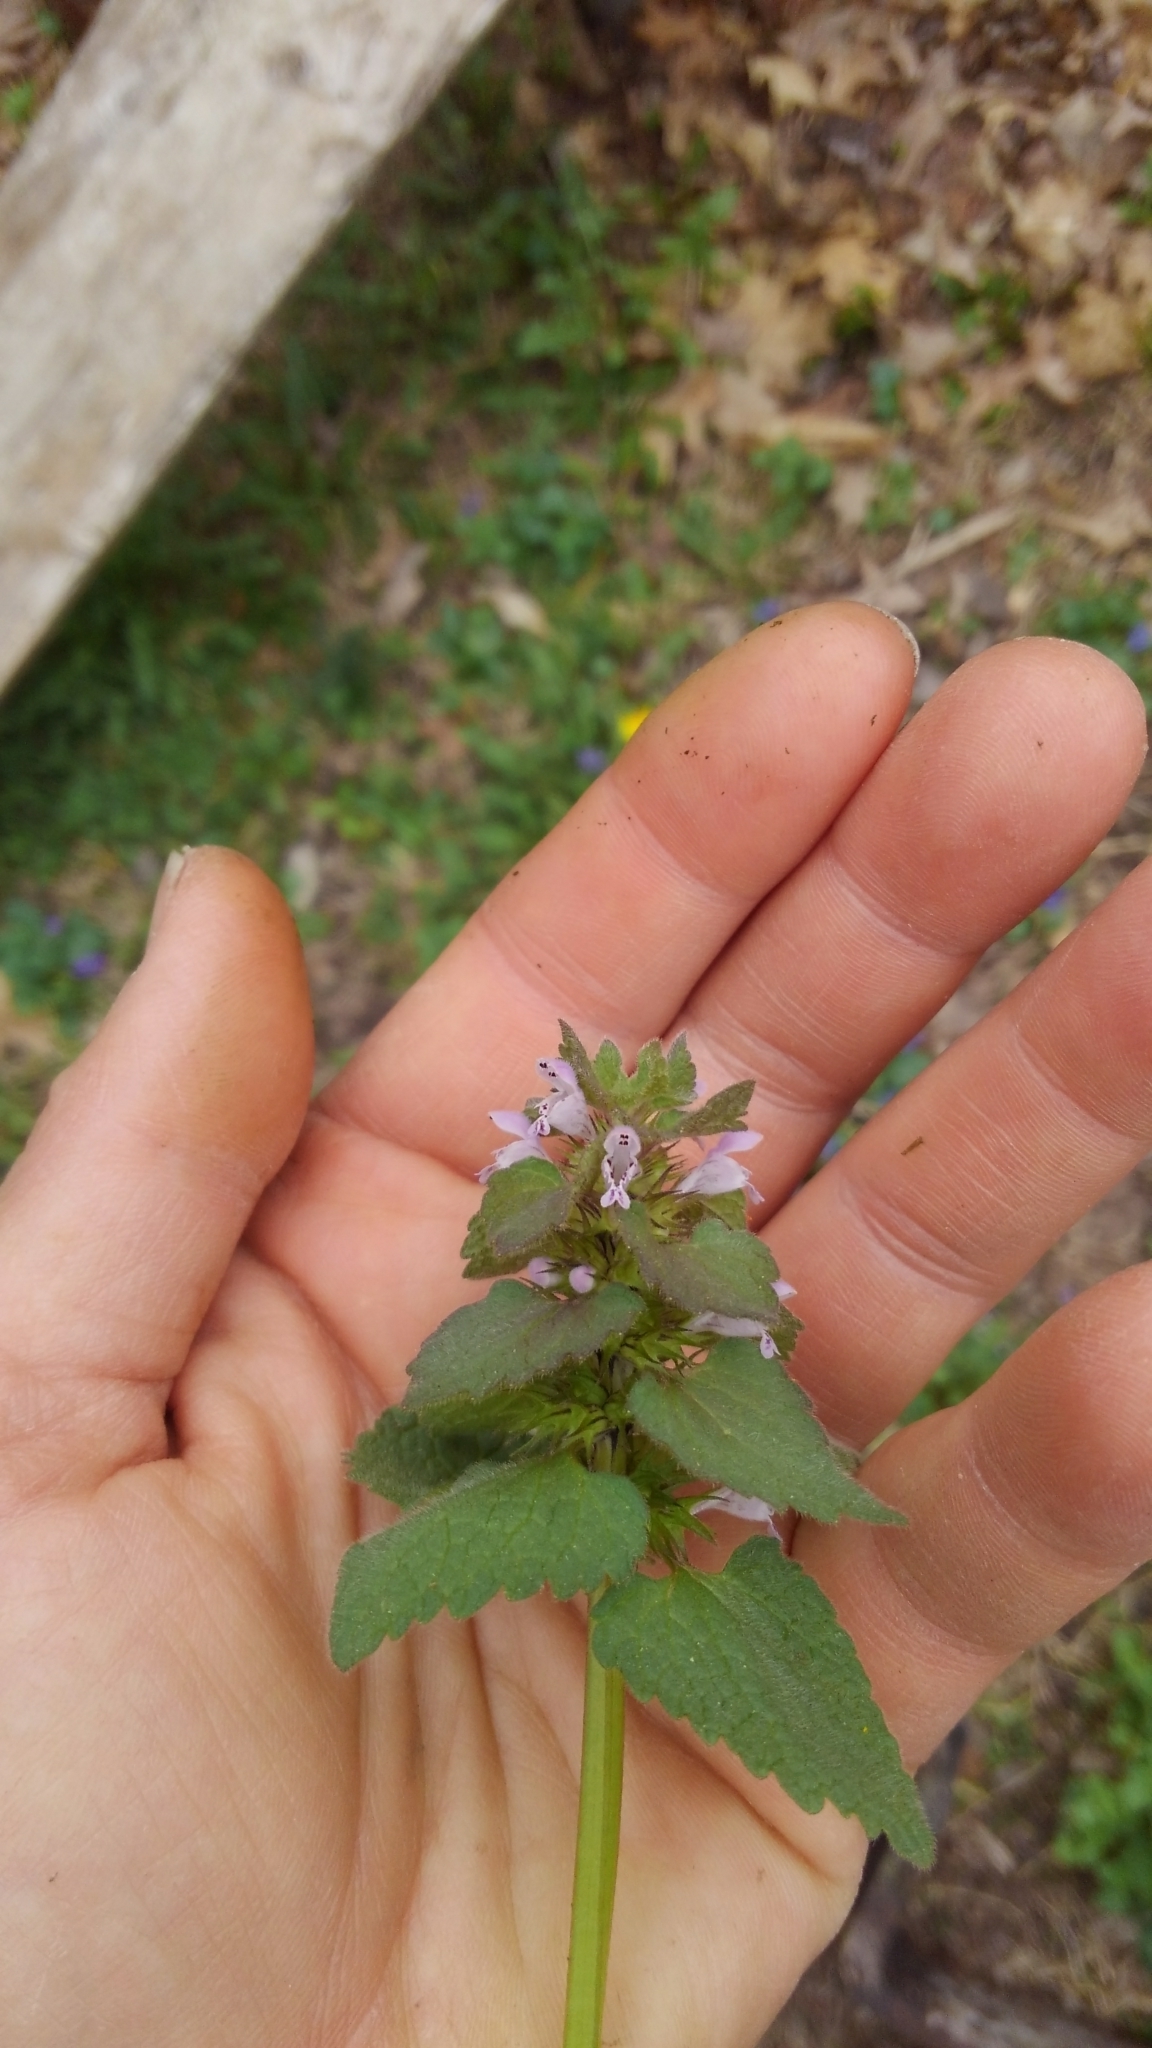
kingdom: Plantae
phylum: Tracheophyta
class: Magnoliopsida
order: Lamiales
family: Lamiaceae
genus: Lamium
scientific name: Lamium purpureum
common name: Red dead-nettle
